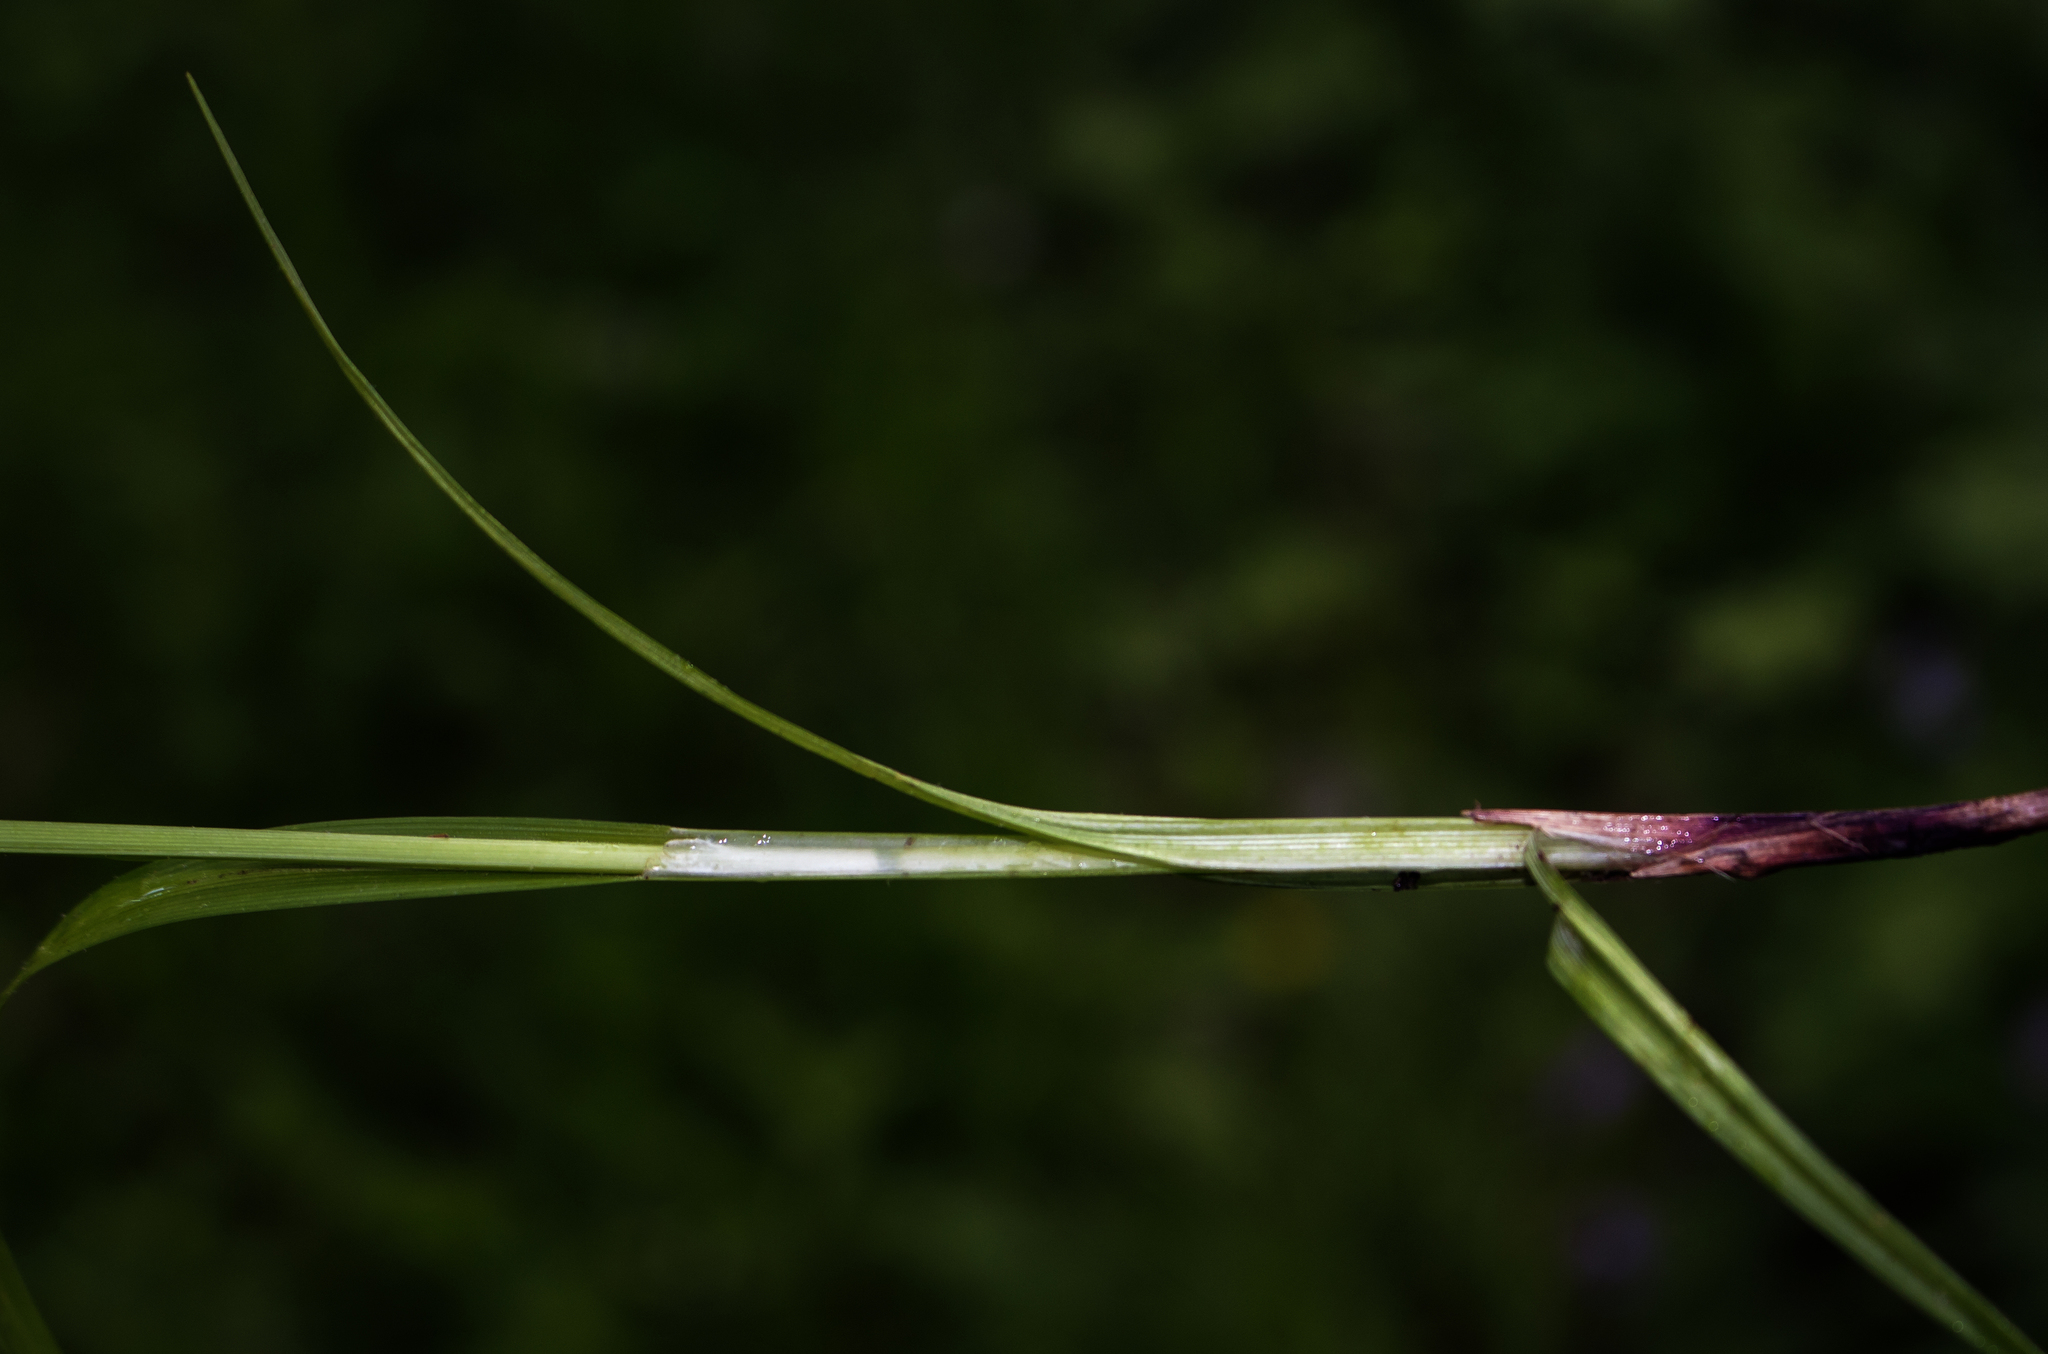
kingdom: Plantae
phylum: Tracheophyta
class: Liliopsida
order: Poales
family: Cyperaceae
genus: Carex
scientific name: Carex gracillima
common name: Graceful sedge
